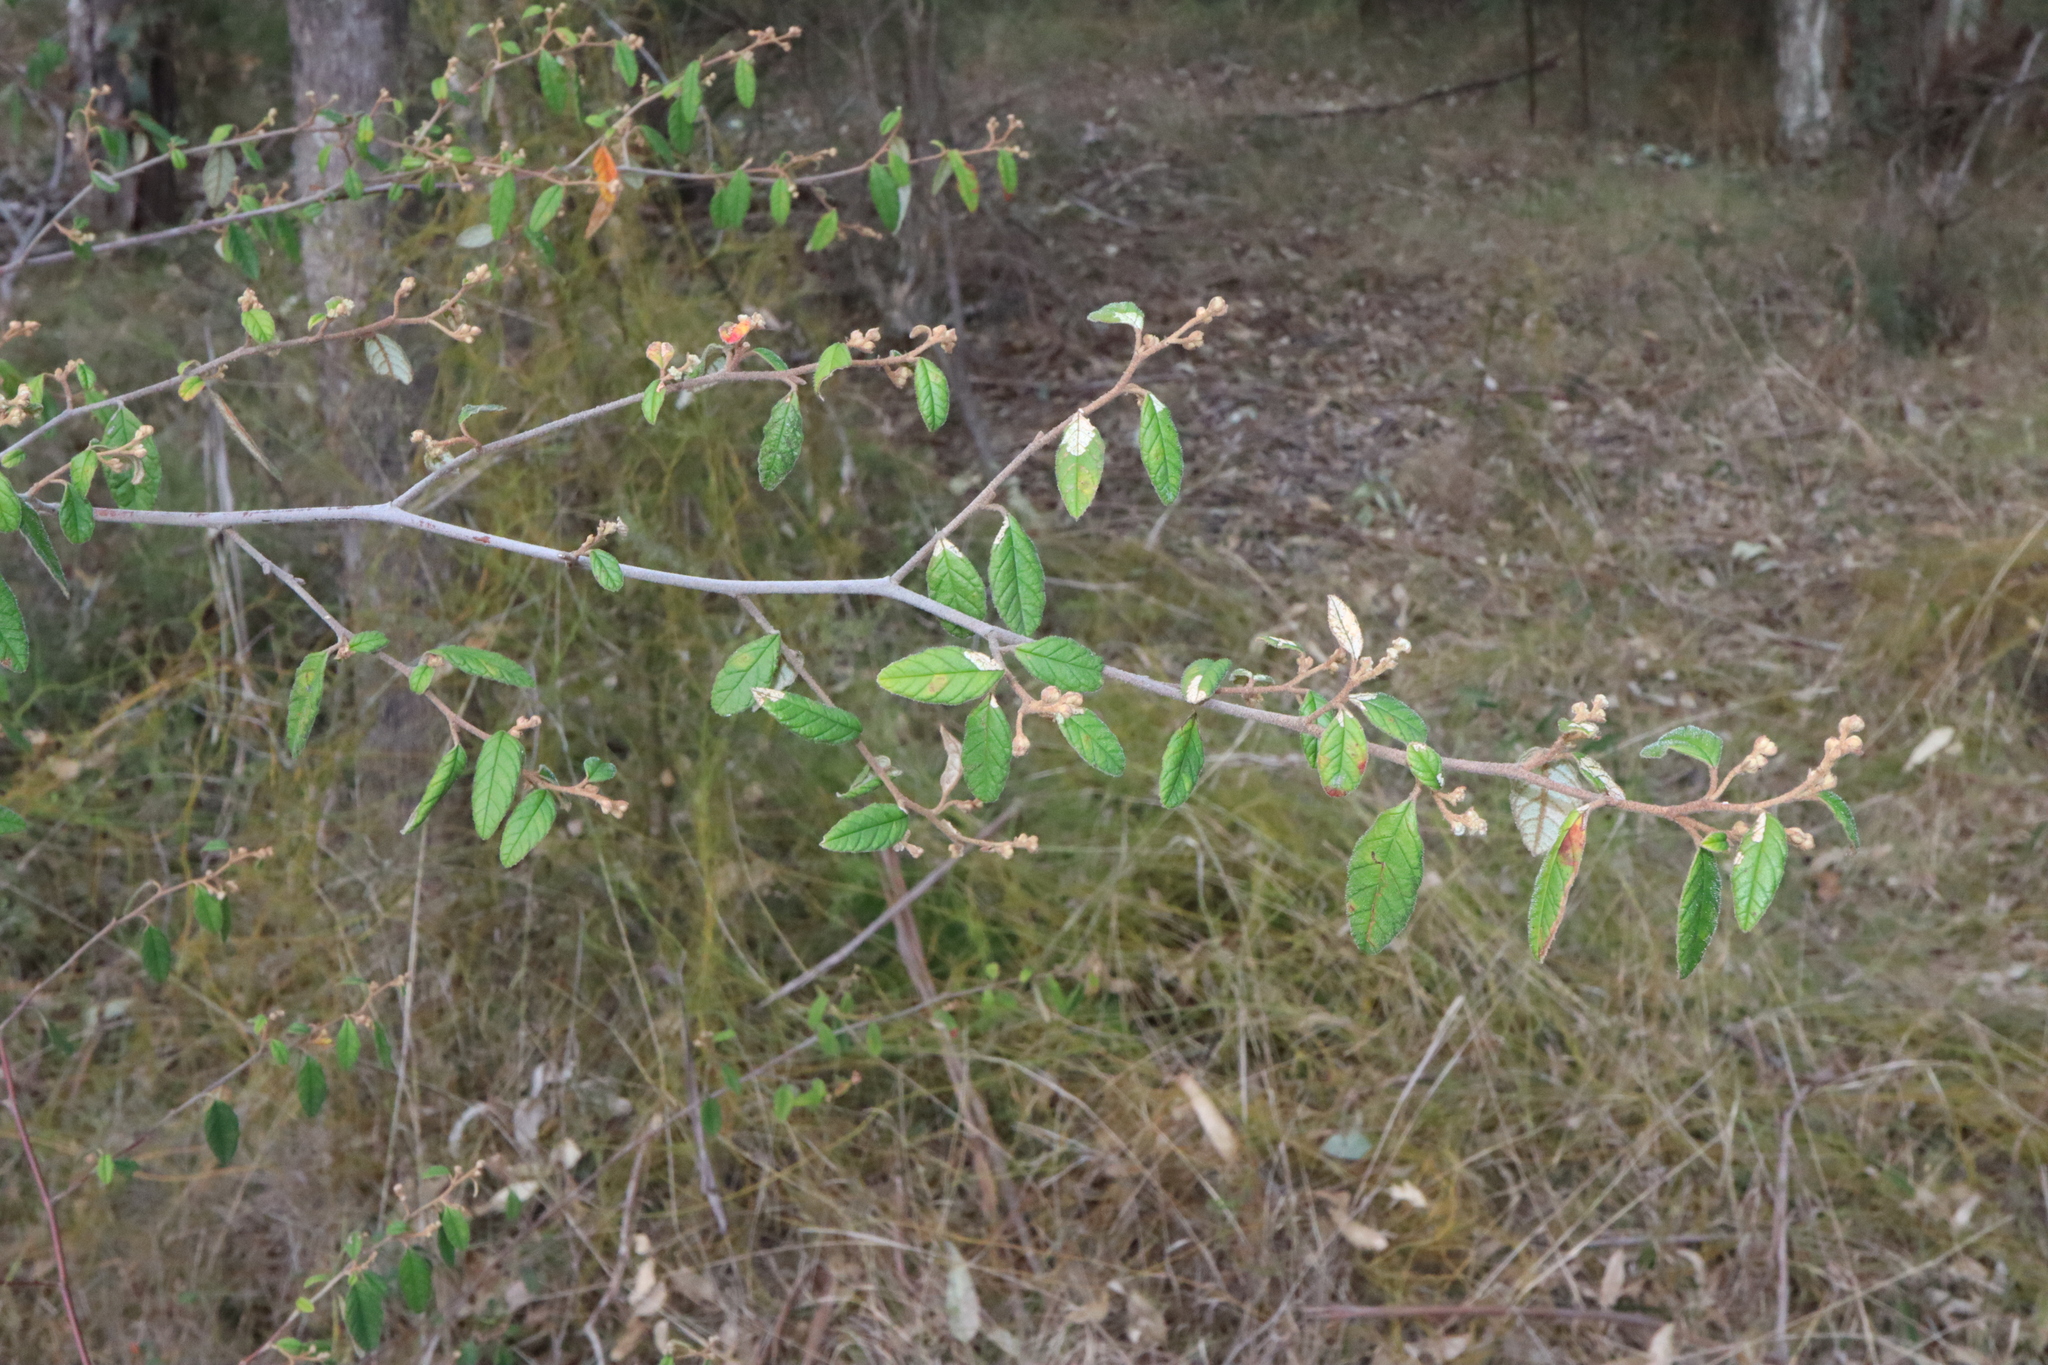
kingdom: Plantae
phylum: Tracheophyta
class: Magnoliopsida
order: Rosales
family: Rhamnaceae
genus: Pomaderris
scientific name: Pomaderris prunifolia
